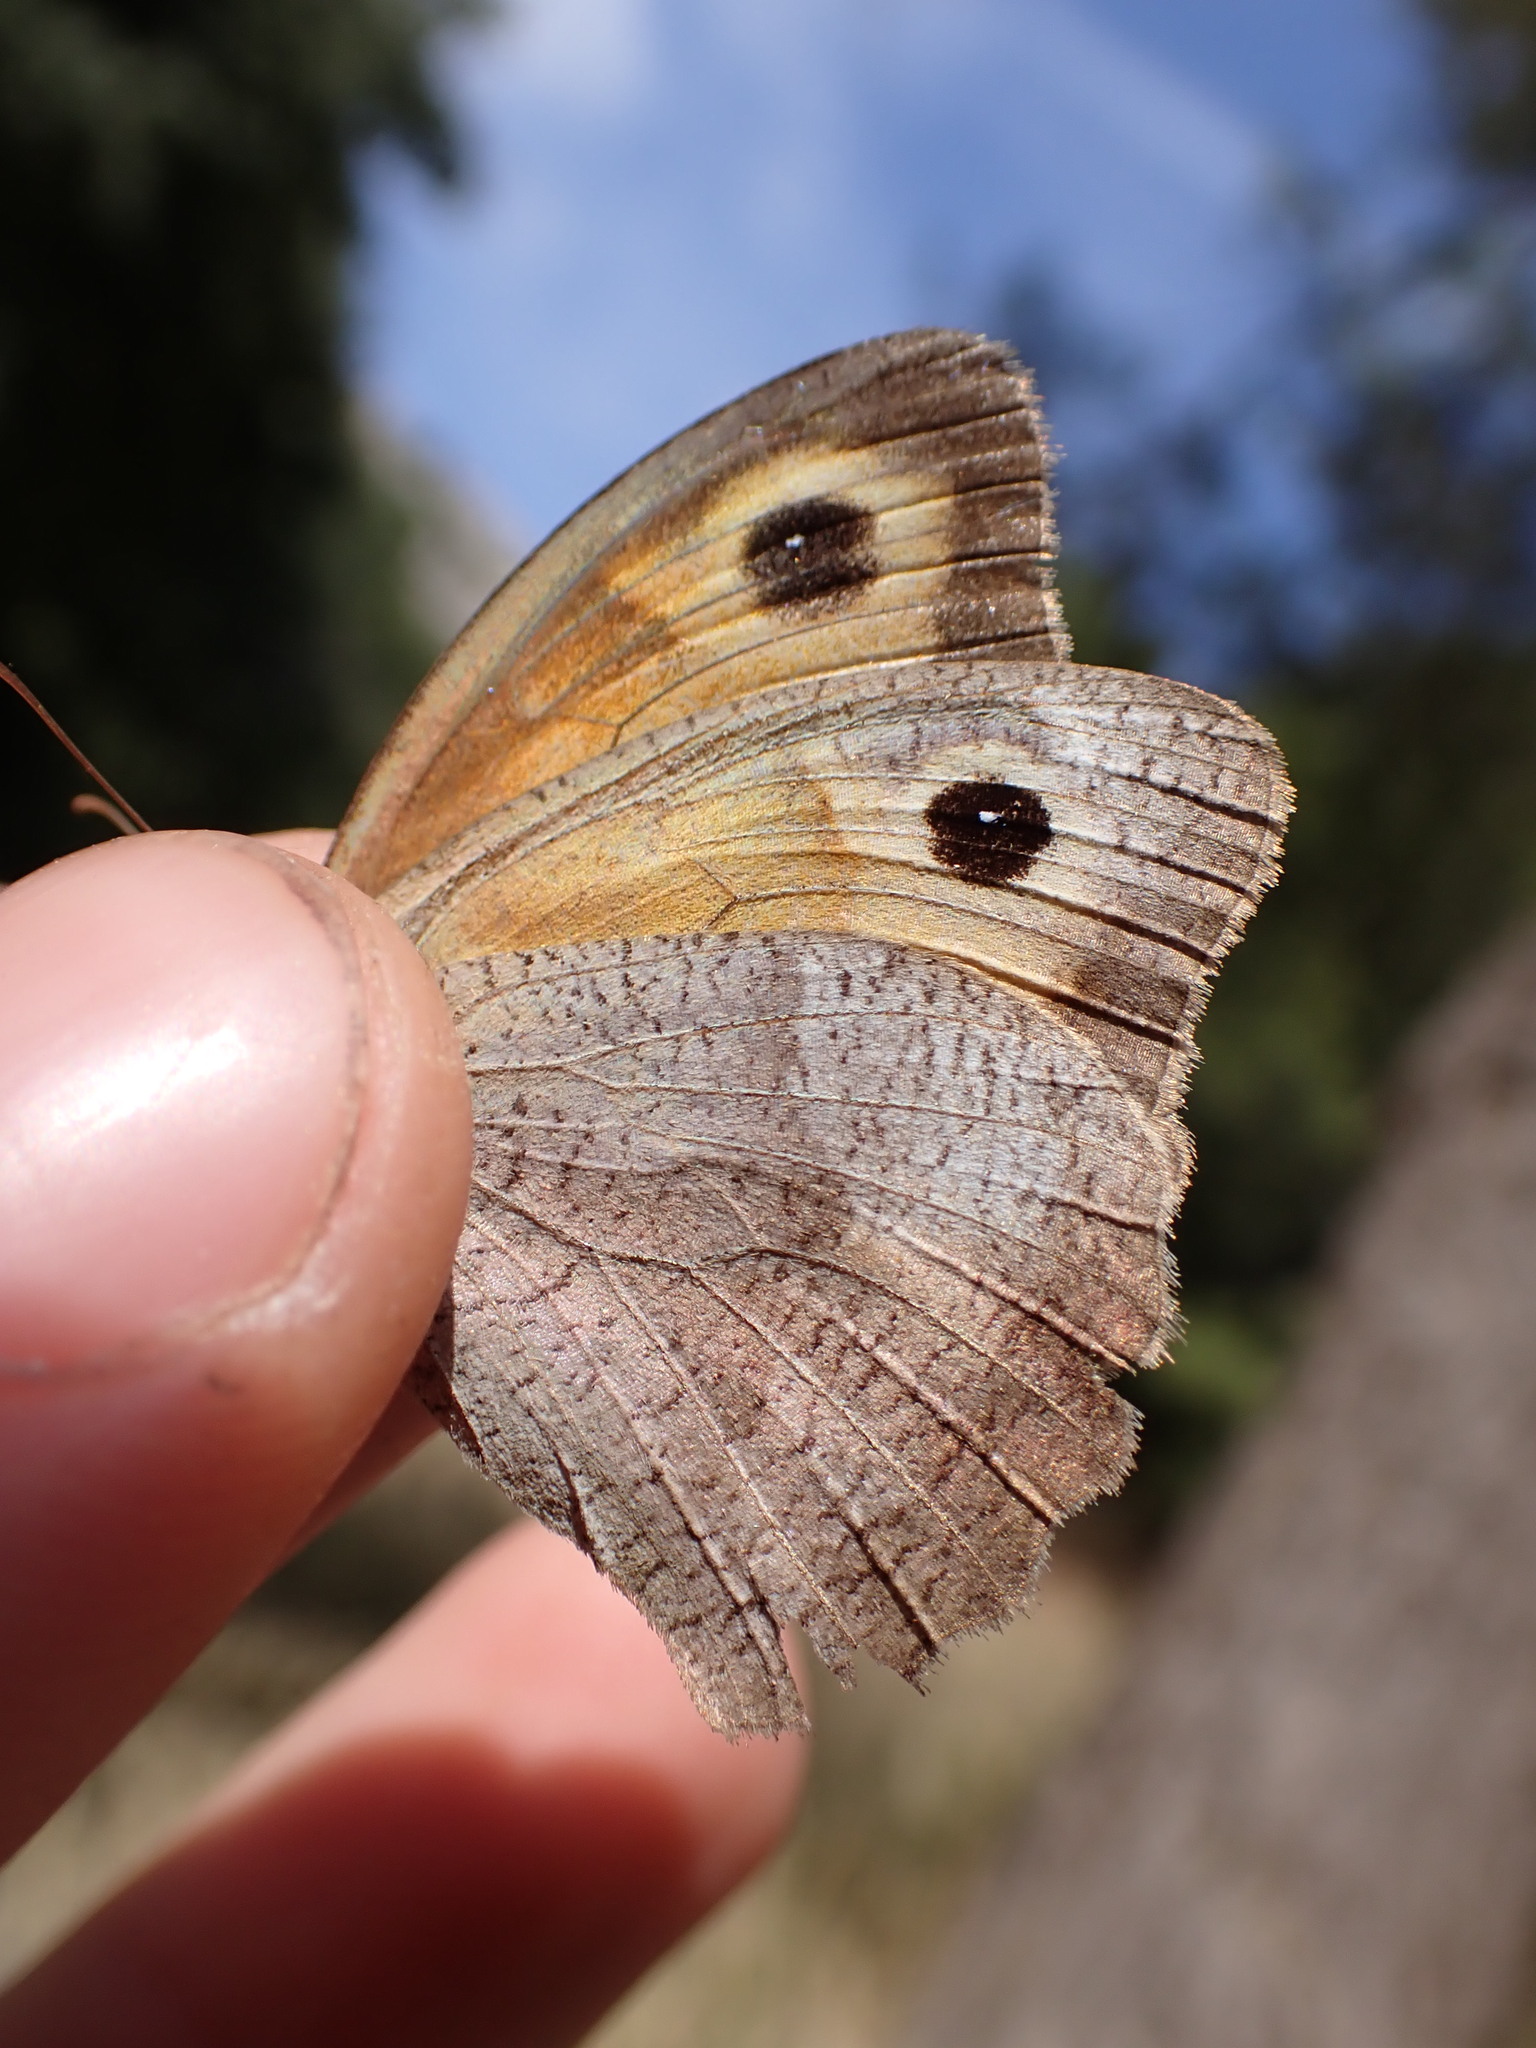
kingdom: Animalia
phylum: Arthropoda
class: Insecta
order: Lepidoptera
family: Nymphalidae
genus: Maniola
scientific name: Maniola jurtina
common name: Meadow brown
